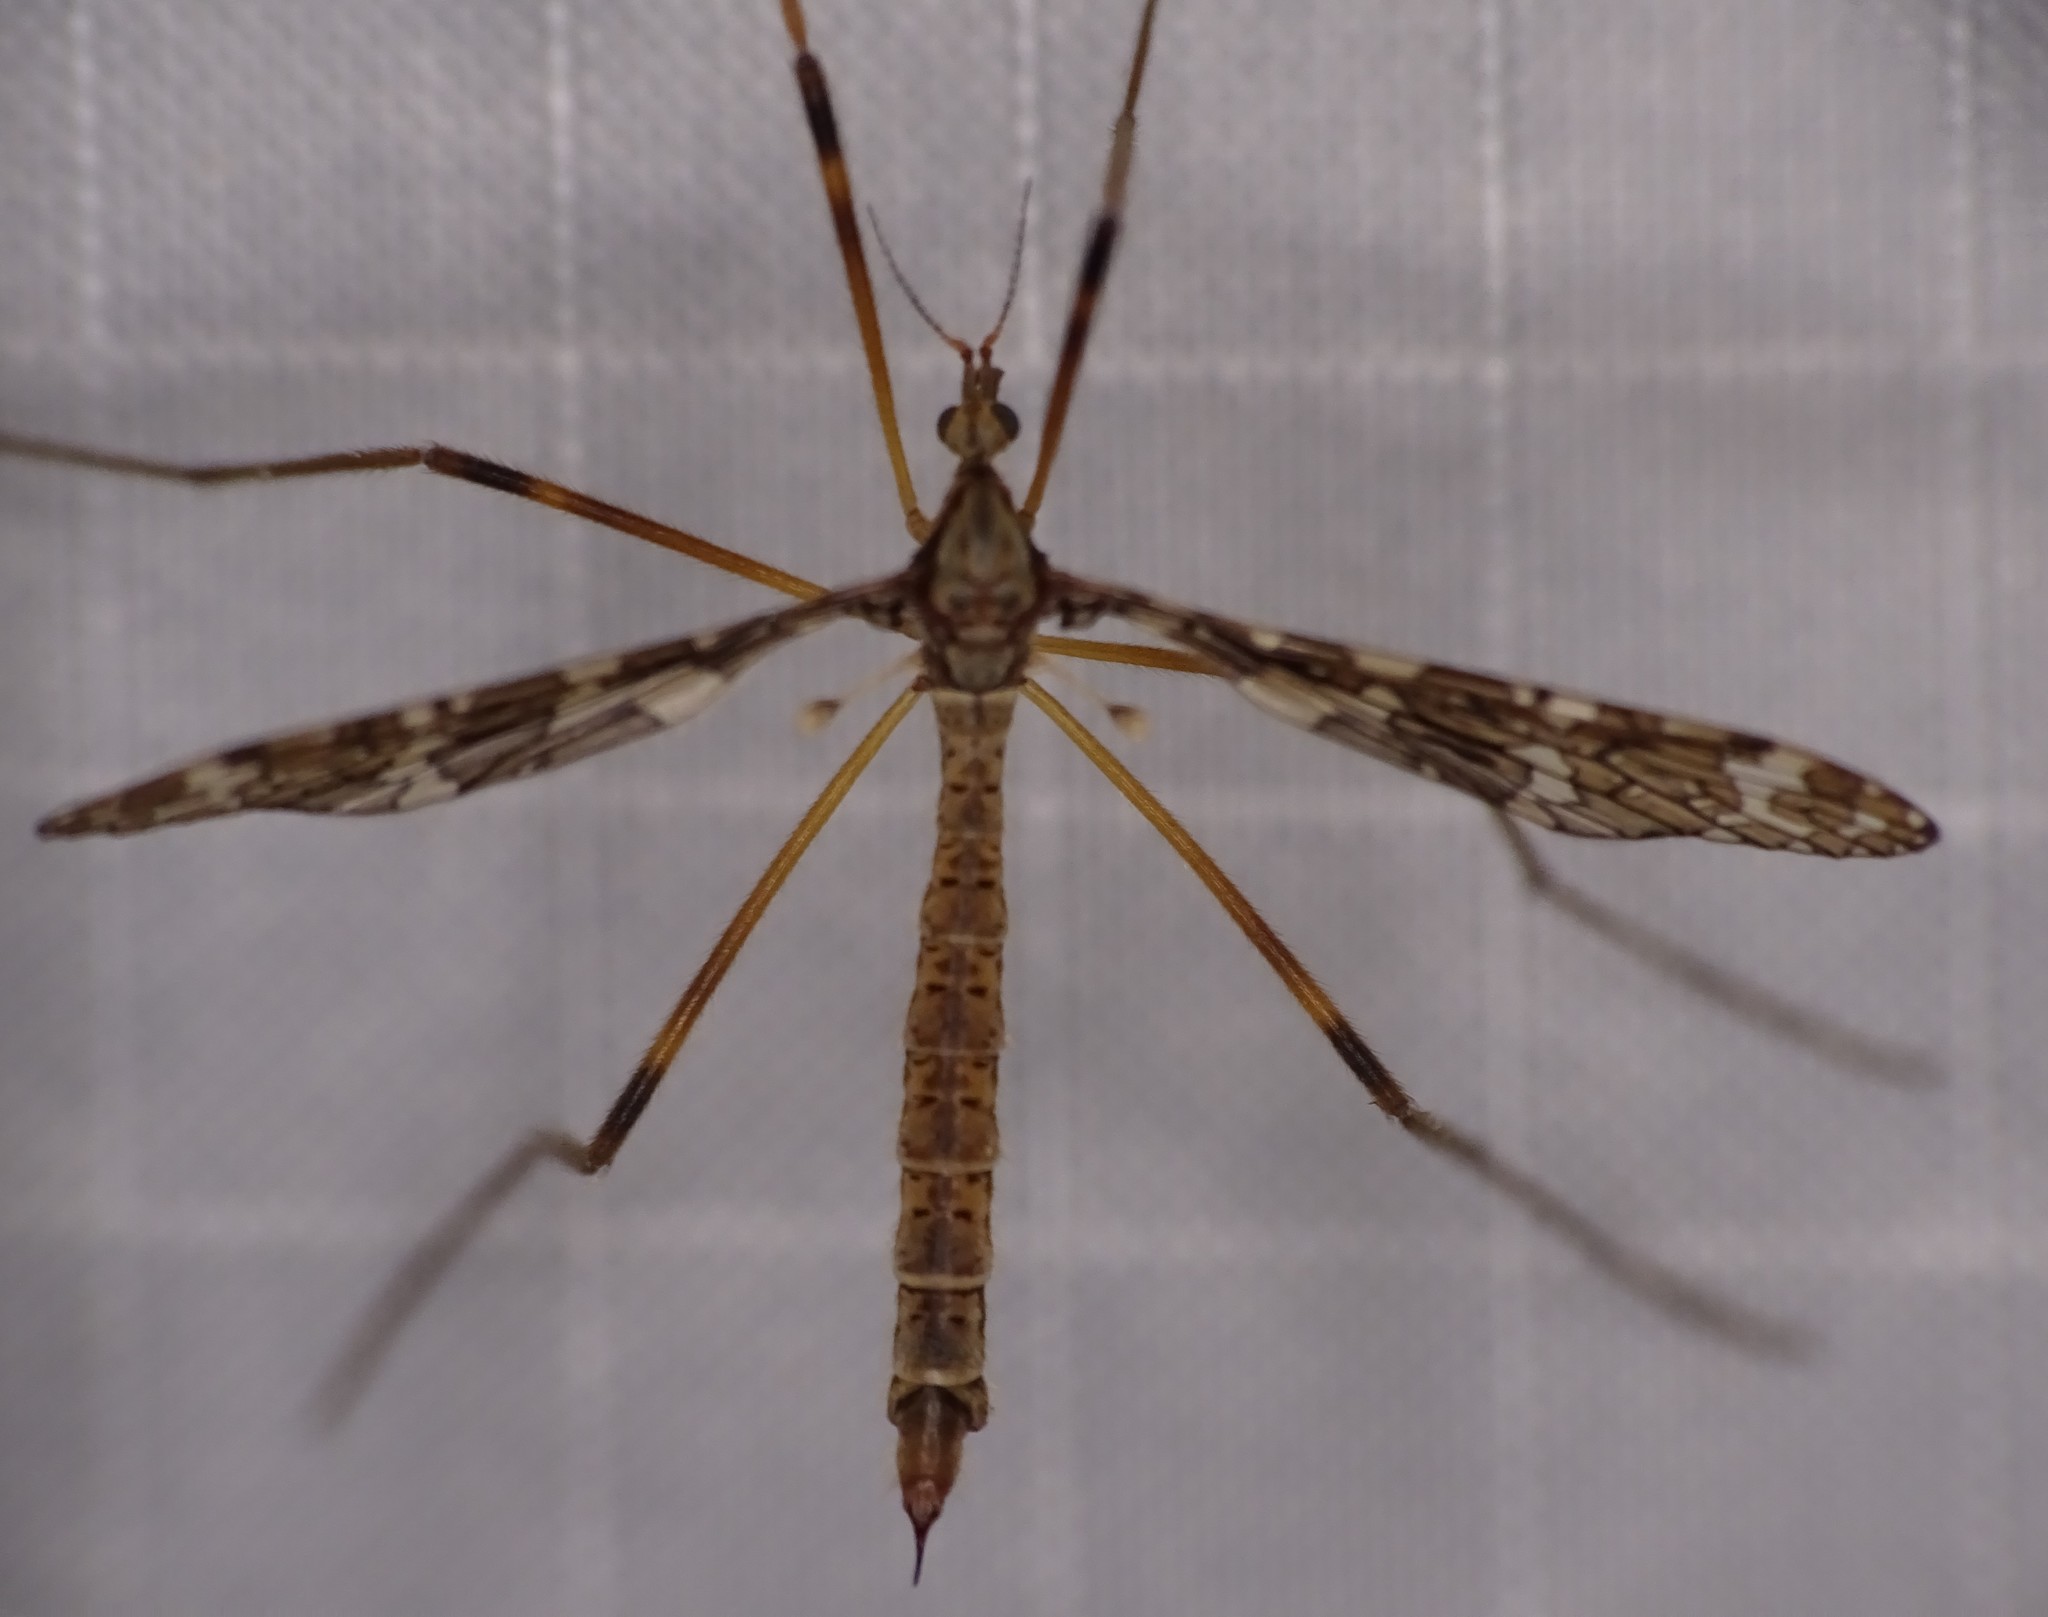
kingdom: Animalia
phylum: Arthropoda
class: Insecta
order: Diptera
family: Limoniidae
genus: Epiphragma
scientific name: Epiphragma fasciapenne
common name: Band-winged crane fly
